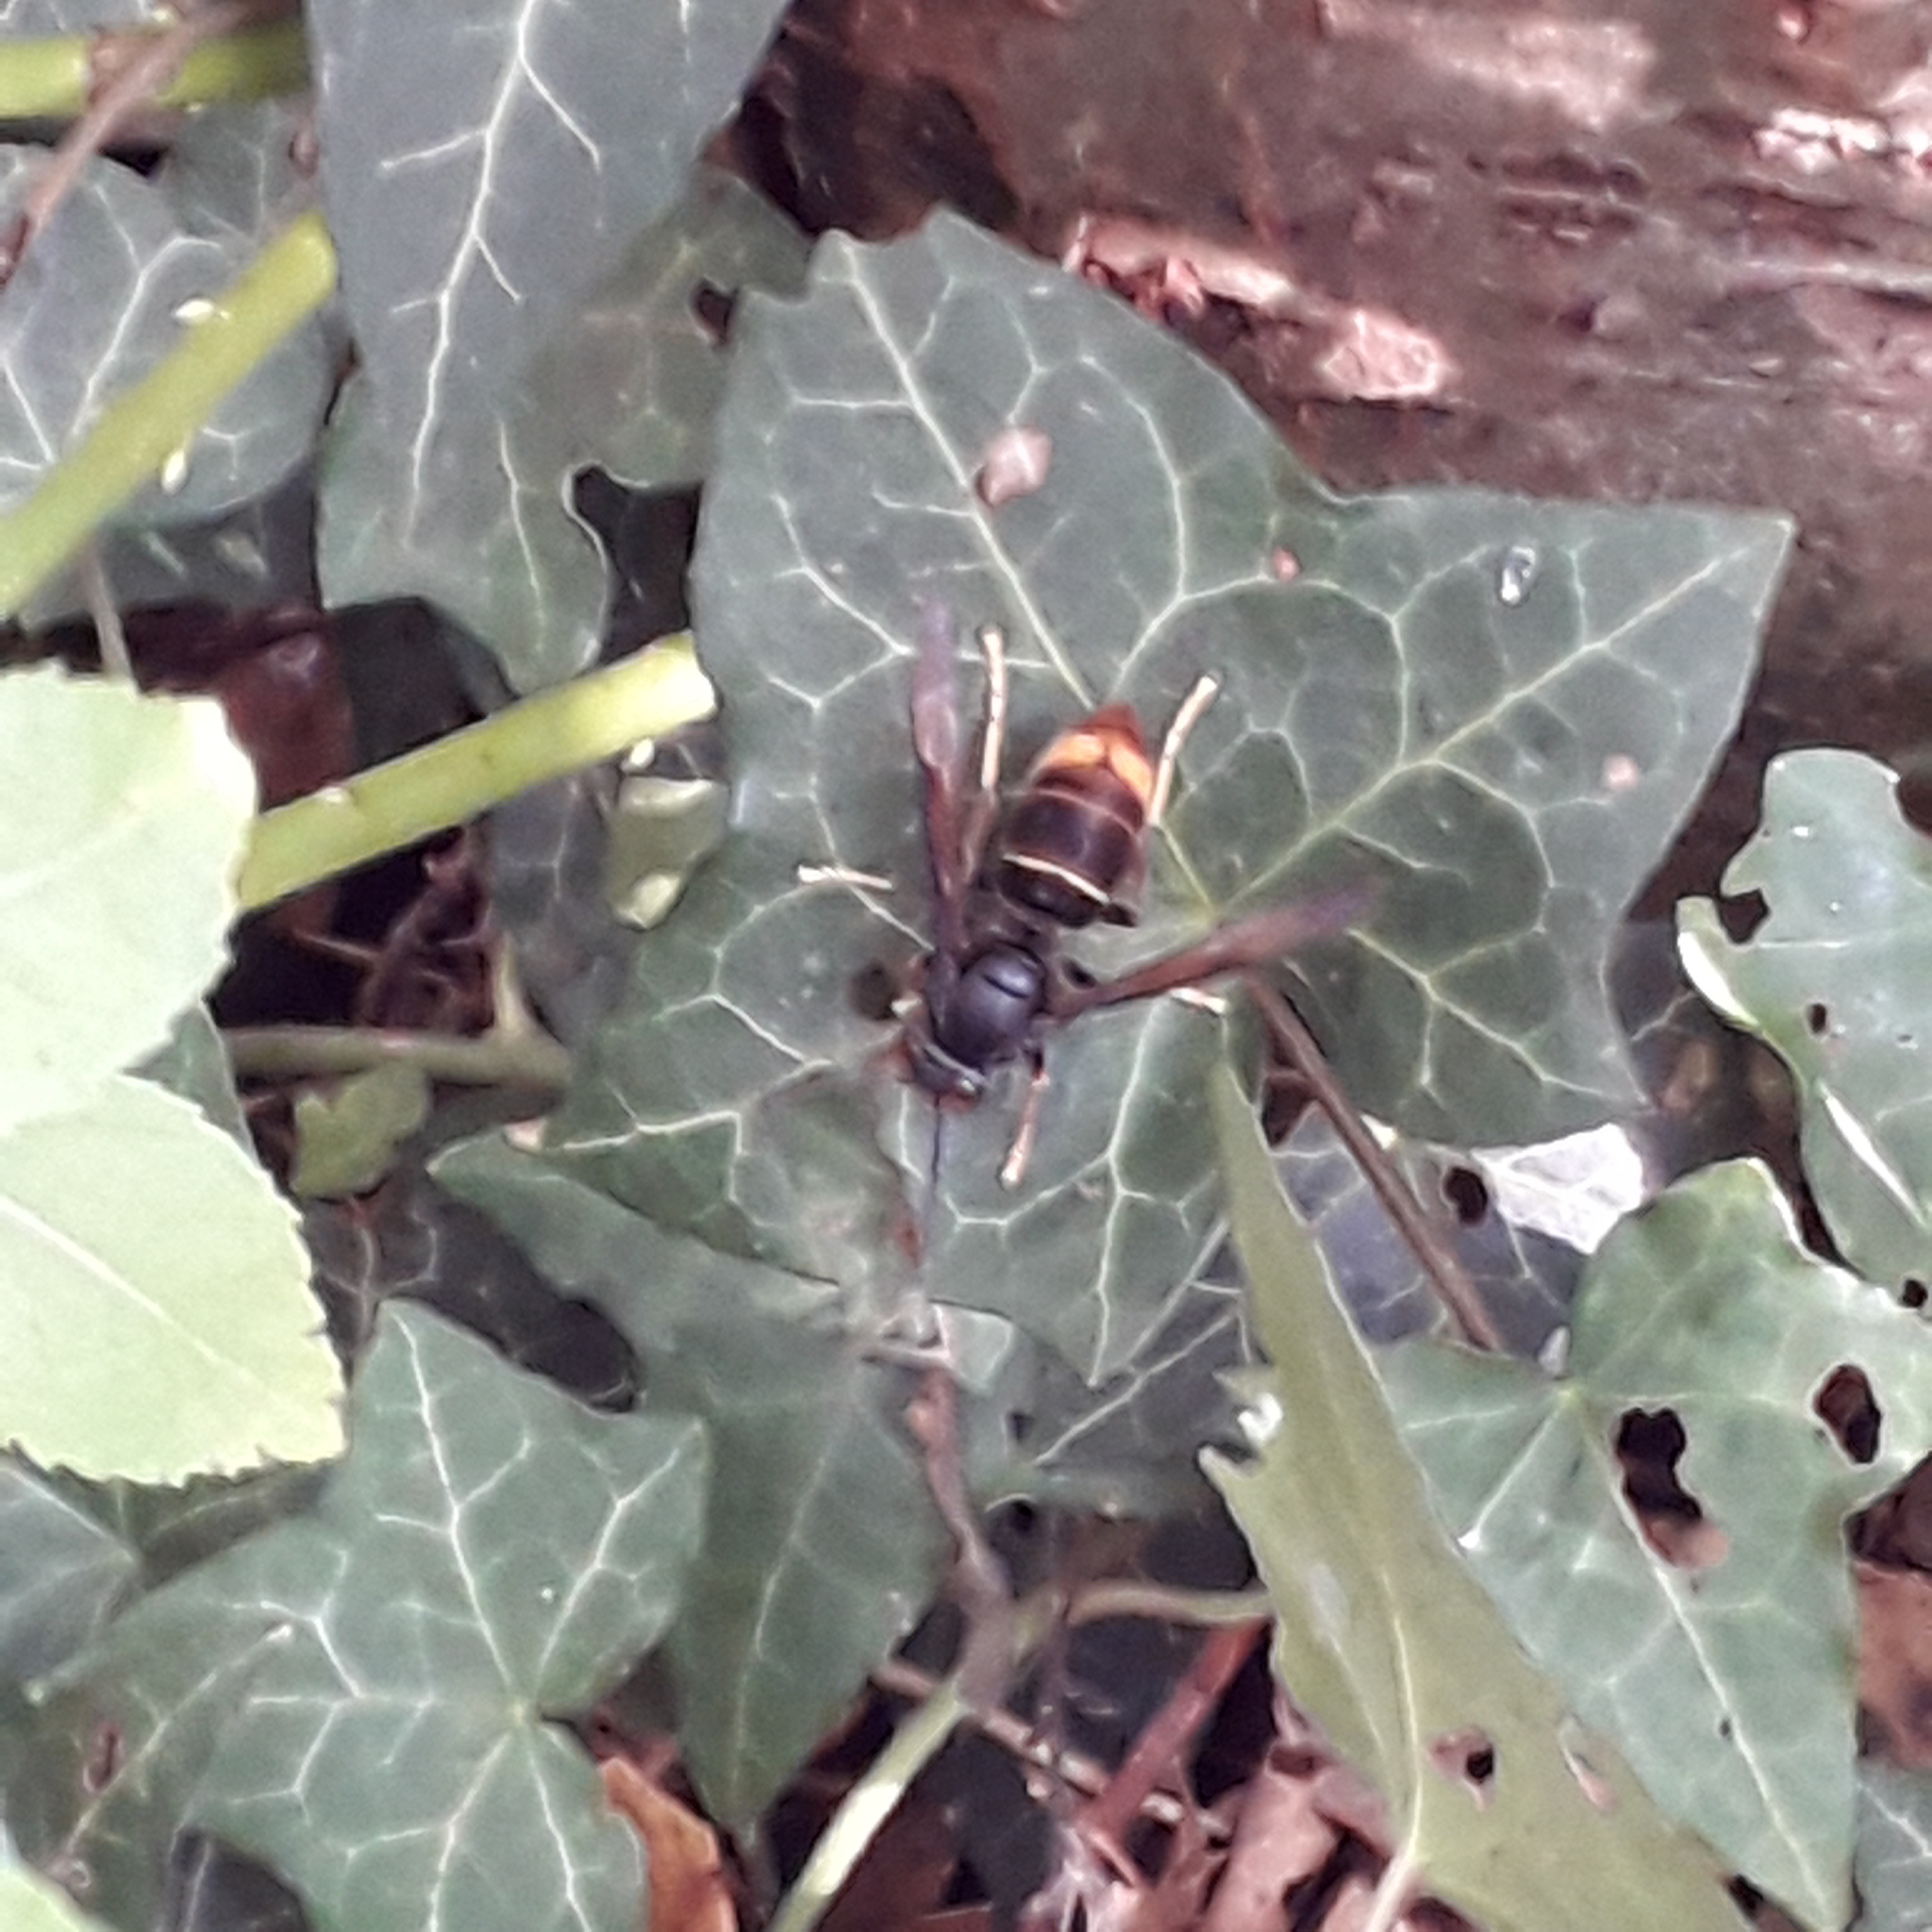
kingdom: Animalia
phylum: Arthropoda
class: Insecta
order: Hymenoptera
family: Vespidae
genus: Vespa
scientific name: Vespa velutina
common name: Asian hornet
